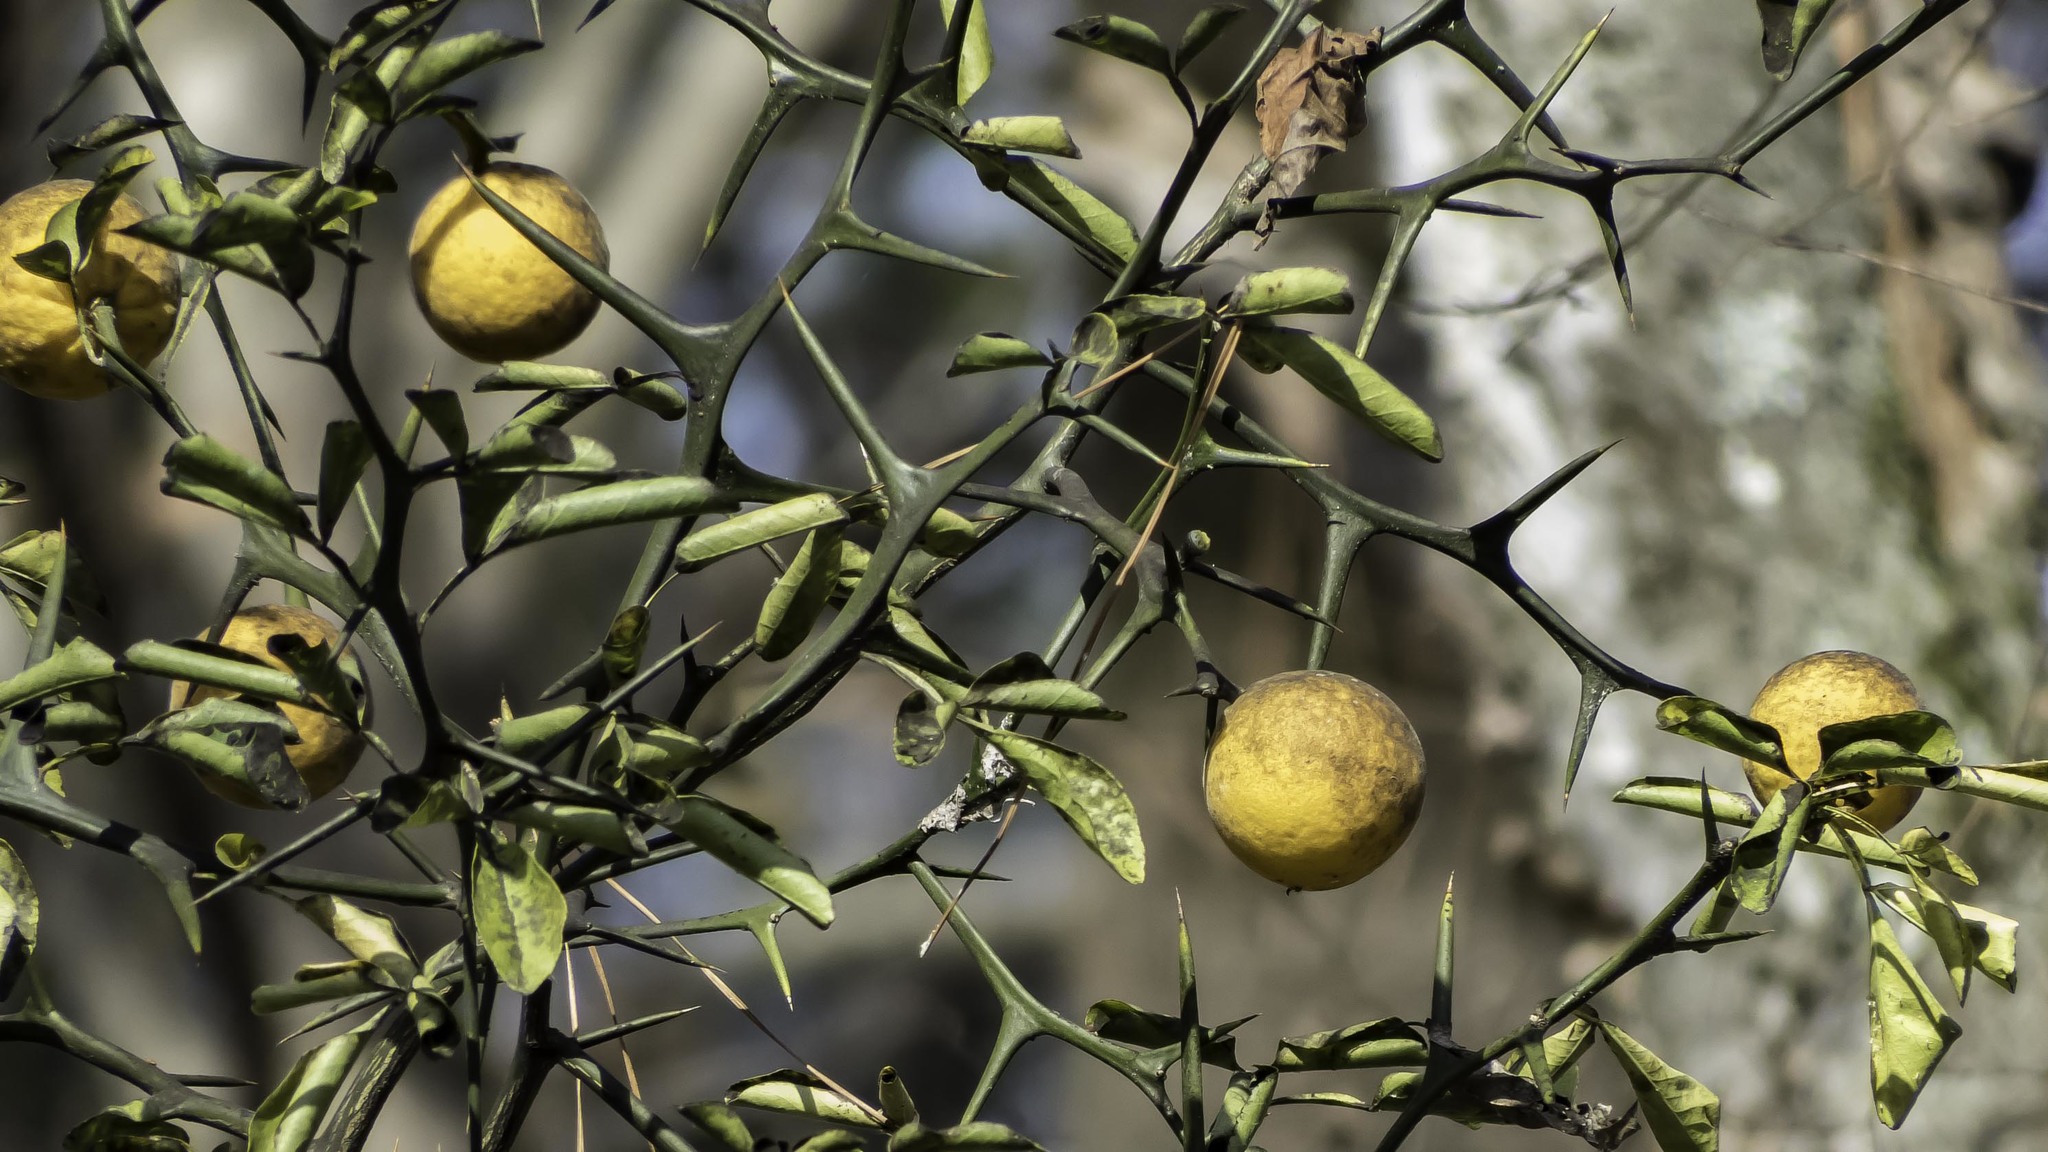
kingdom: Plantae
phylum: Tracheophyta
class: Magnoliopsida
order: Sapindales
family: Rutaceae
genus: Citrus
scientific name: Citrus trifoliata
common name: Japanese bitter-orange
